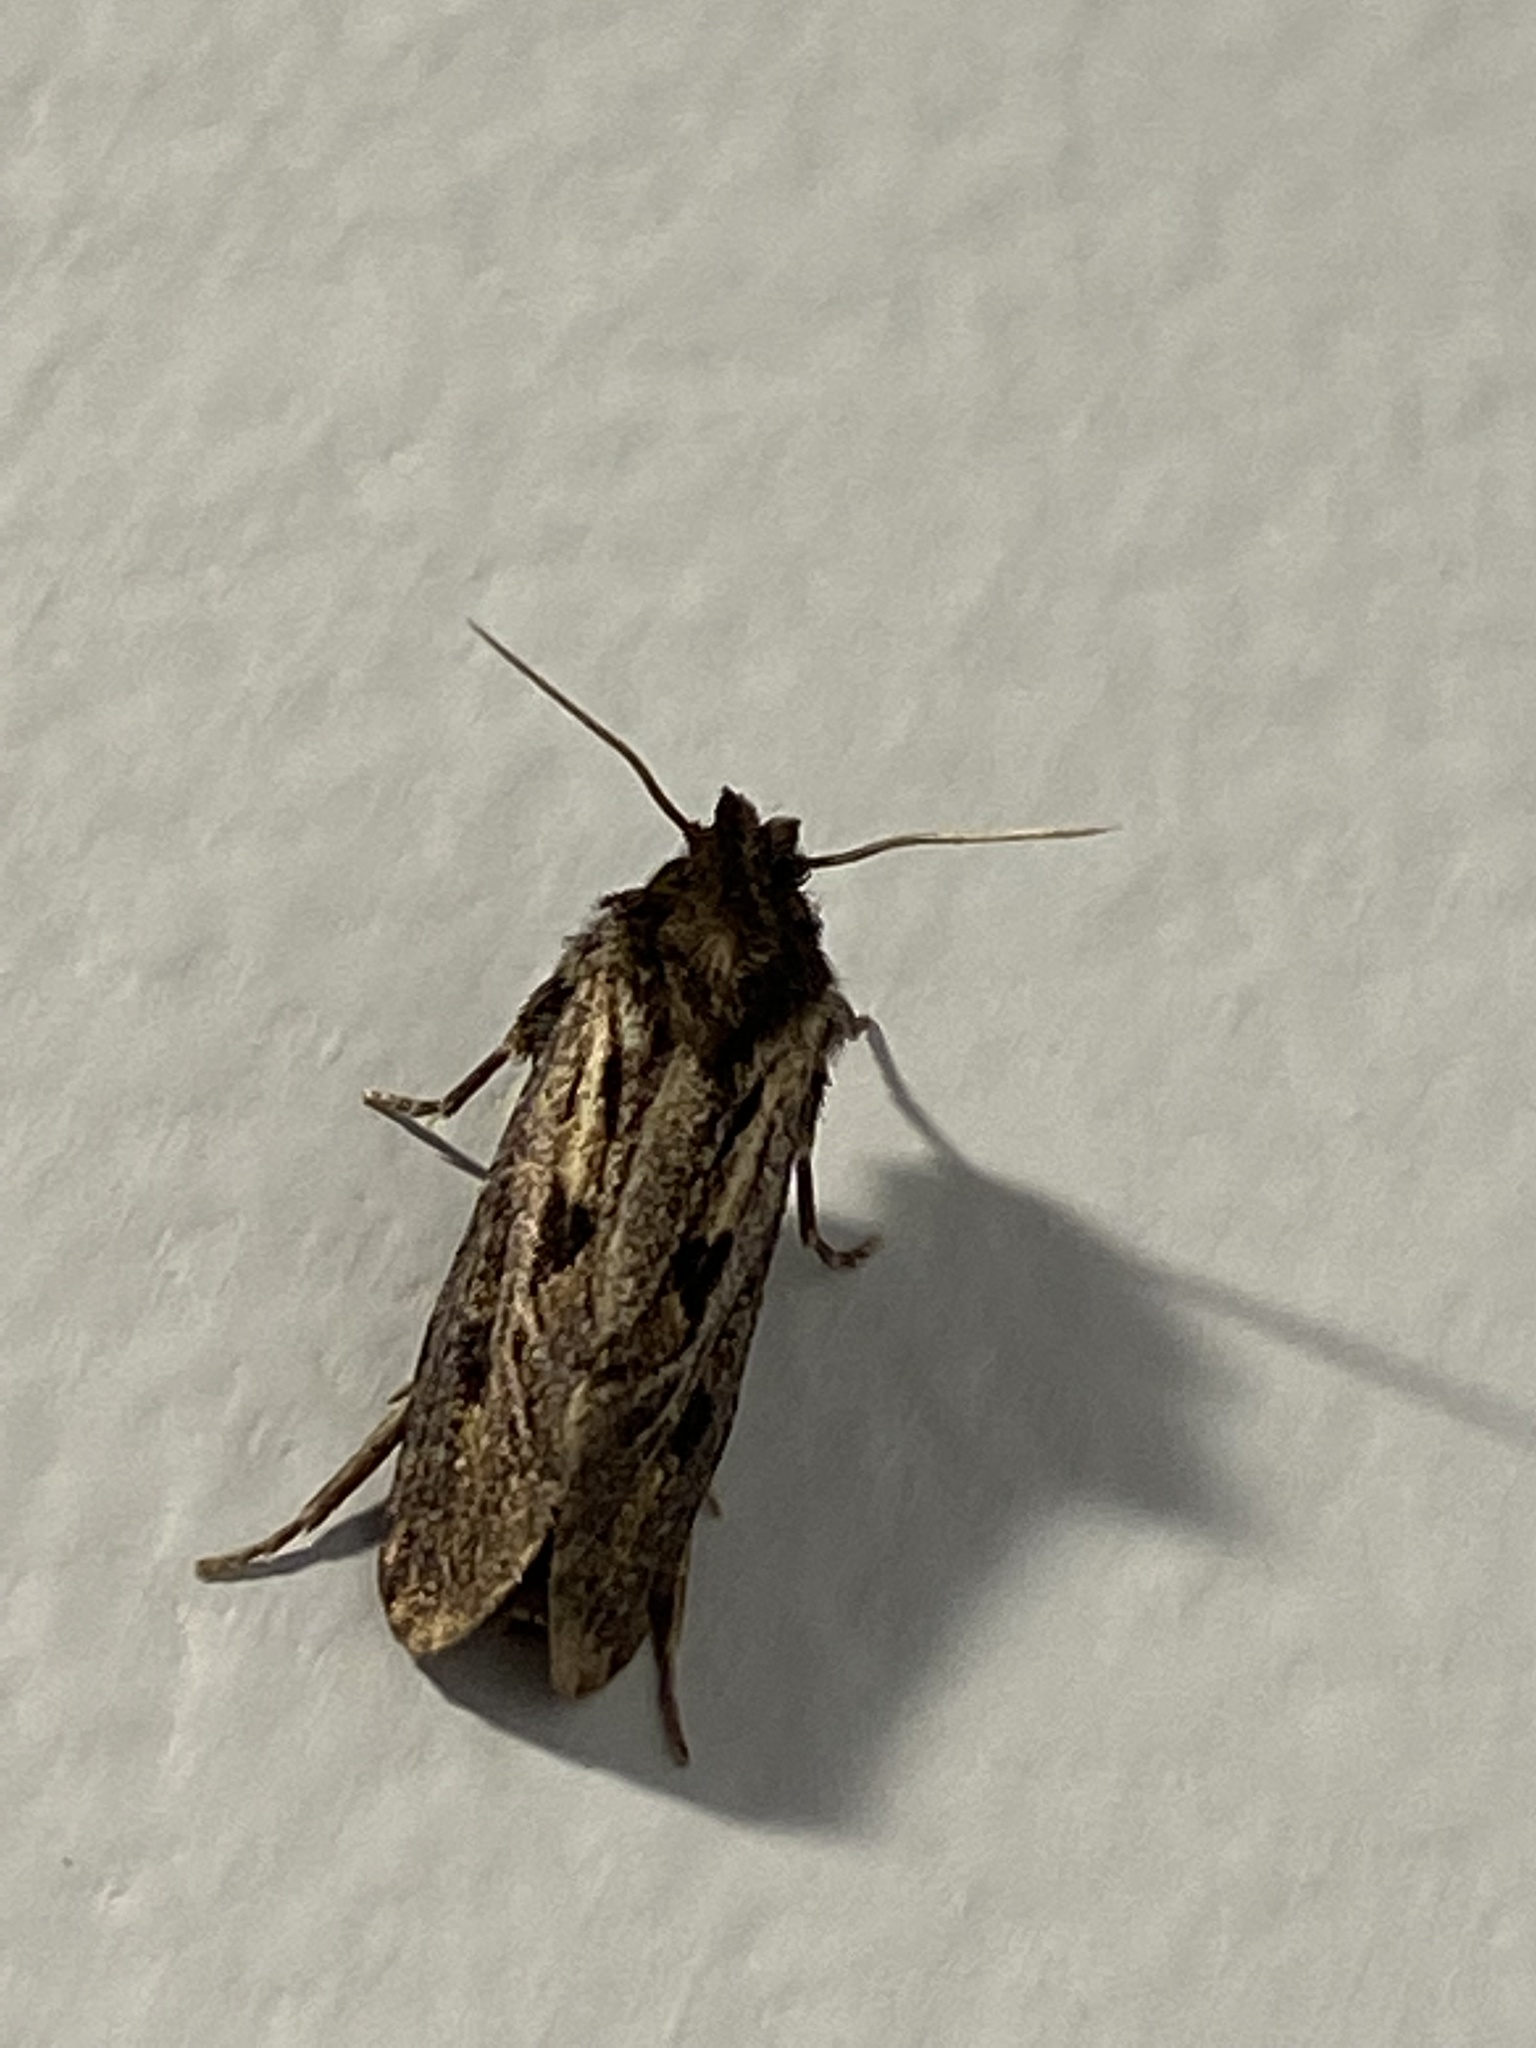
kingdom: Animalia
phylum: Arthropoda
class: Insecta
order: Lepidoptera
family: Tineidae
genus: Acrolophus
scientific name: Acrolophus popeanella
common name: Clemens' grass tubeworm moth
